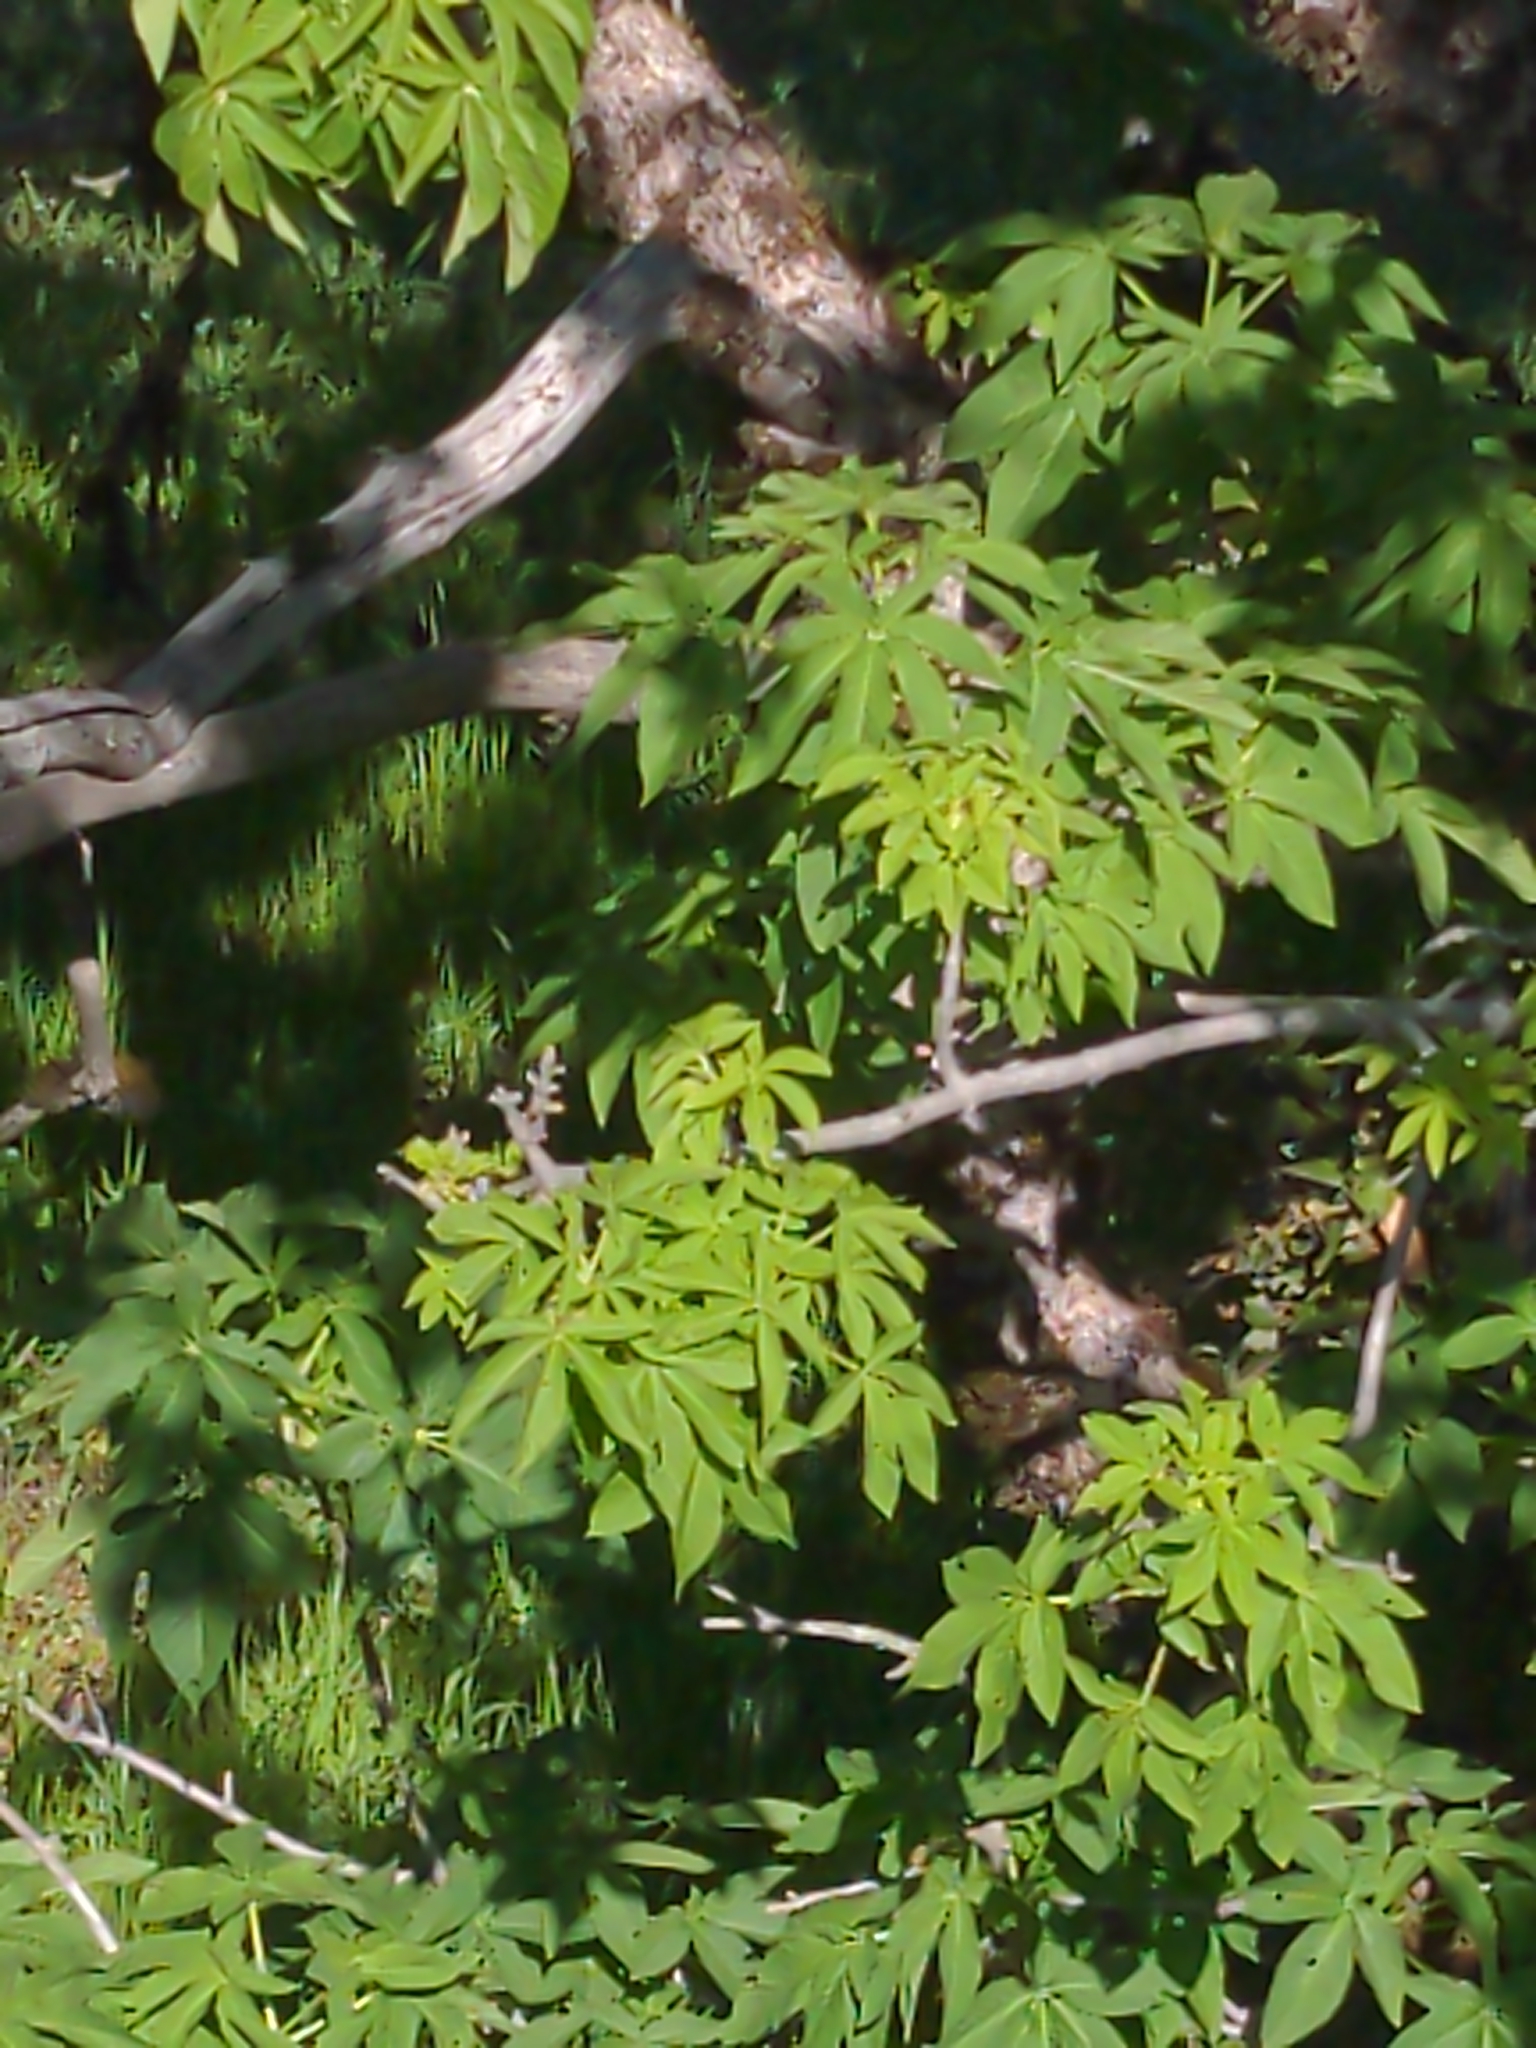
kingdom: Plantae
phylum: Tracheophyta
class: Magnoliopsida
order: Sapindales
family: Sapindaceae
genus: Aesculus
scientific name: Aesculus californica
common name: California buckeye
